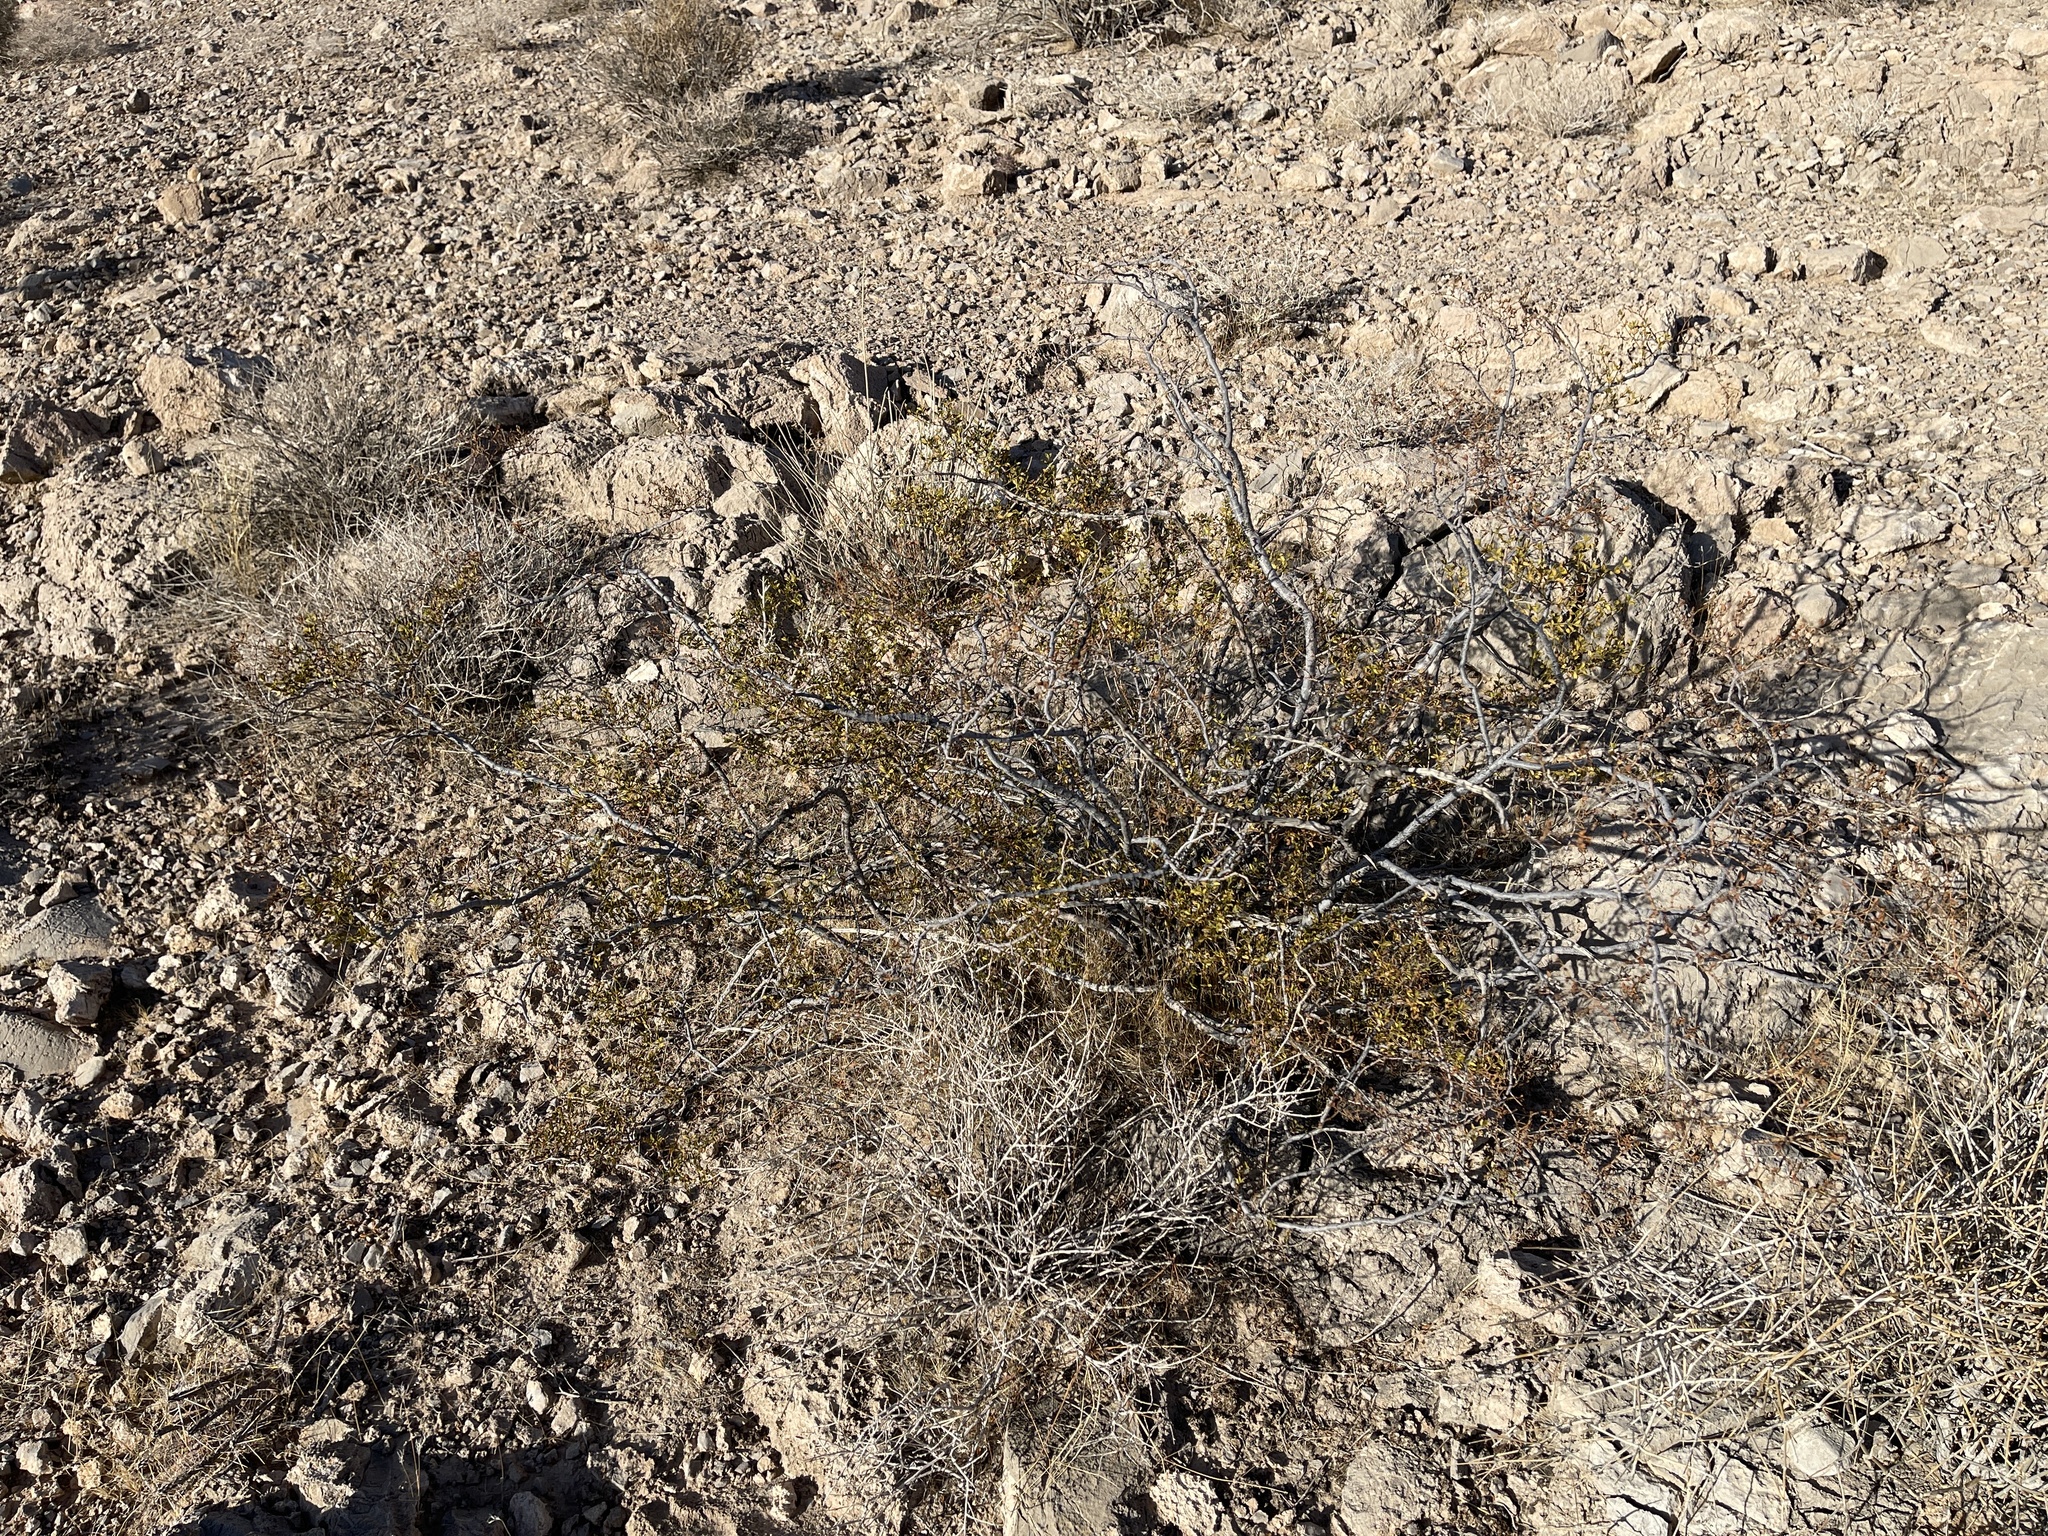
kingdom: Plantae
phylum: Tracheophyta
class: Magnoliopsida
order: Zygophyllales
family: Zygophyllaceae
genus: Larrea
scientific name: Larrea tridentata
